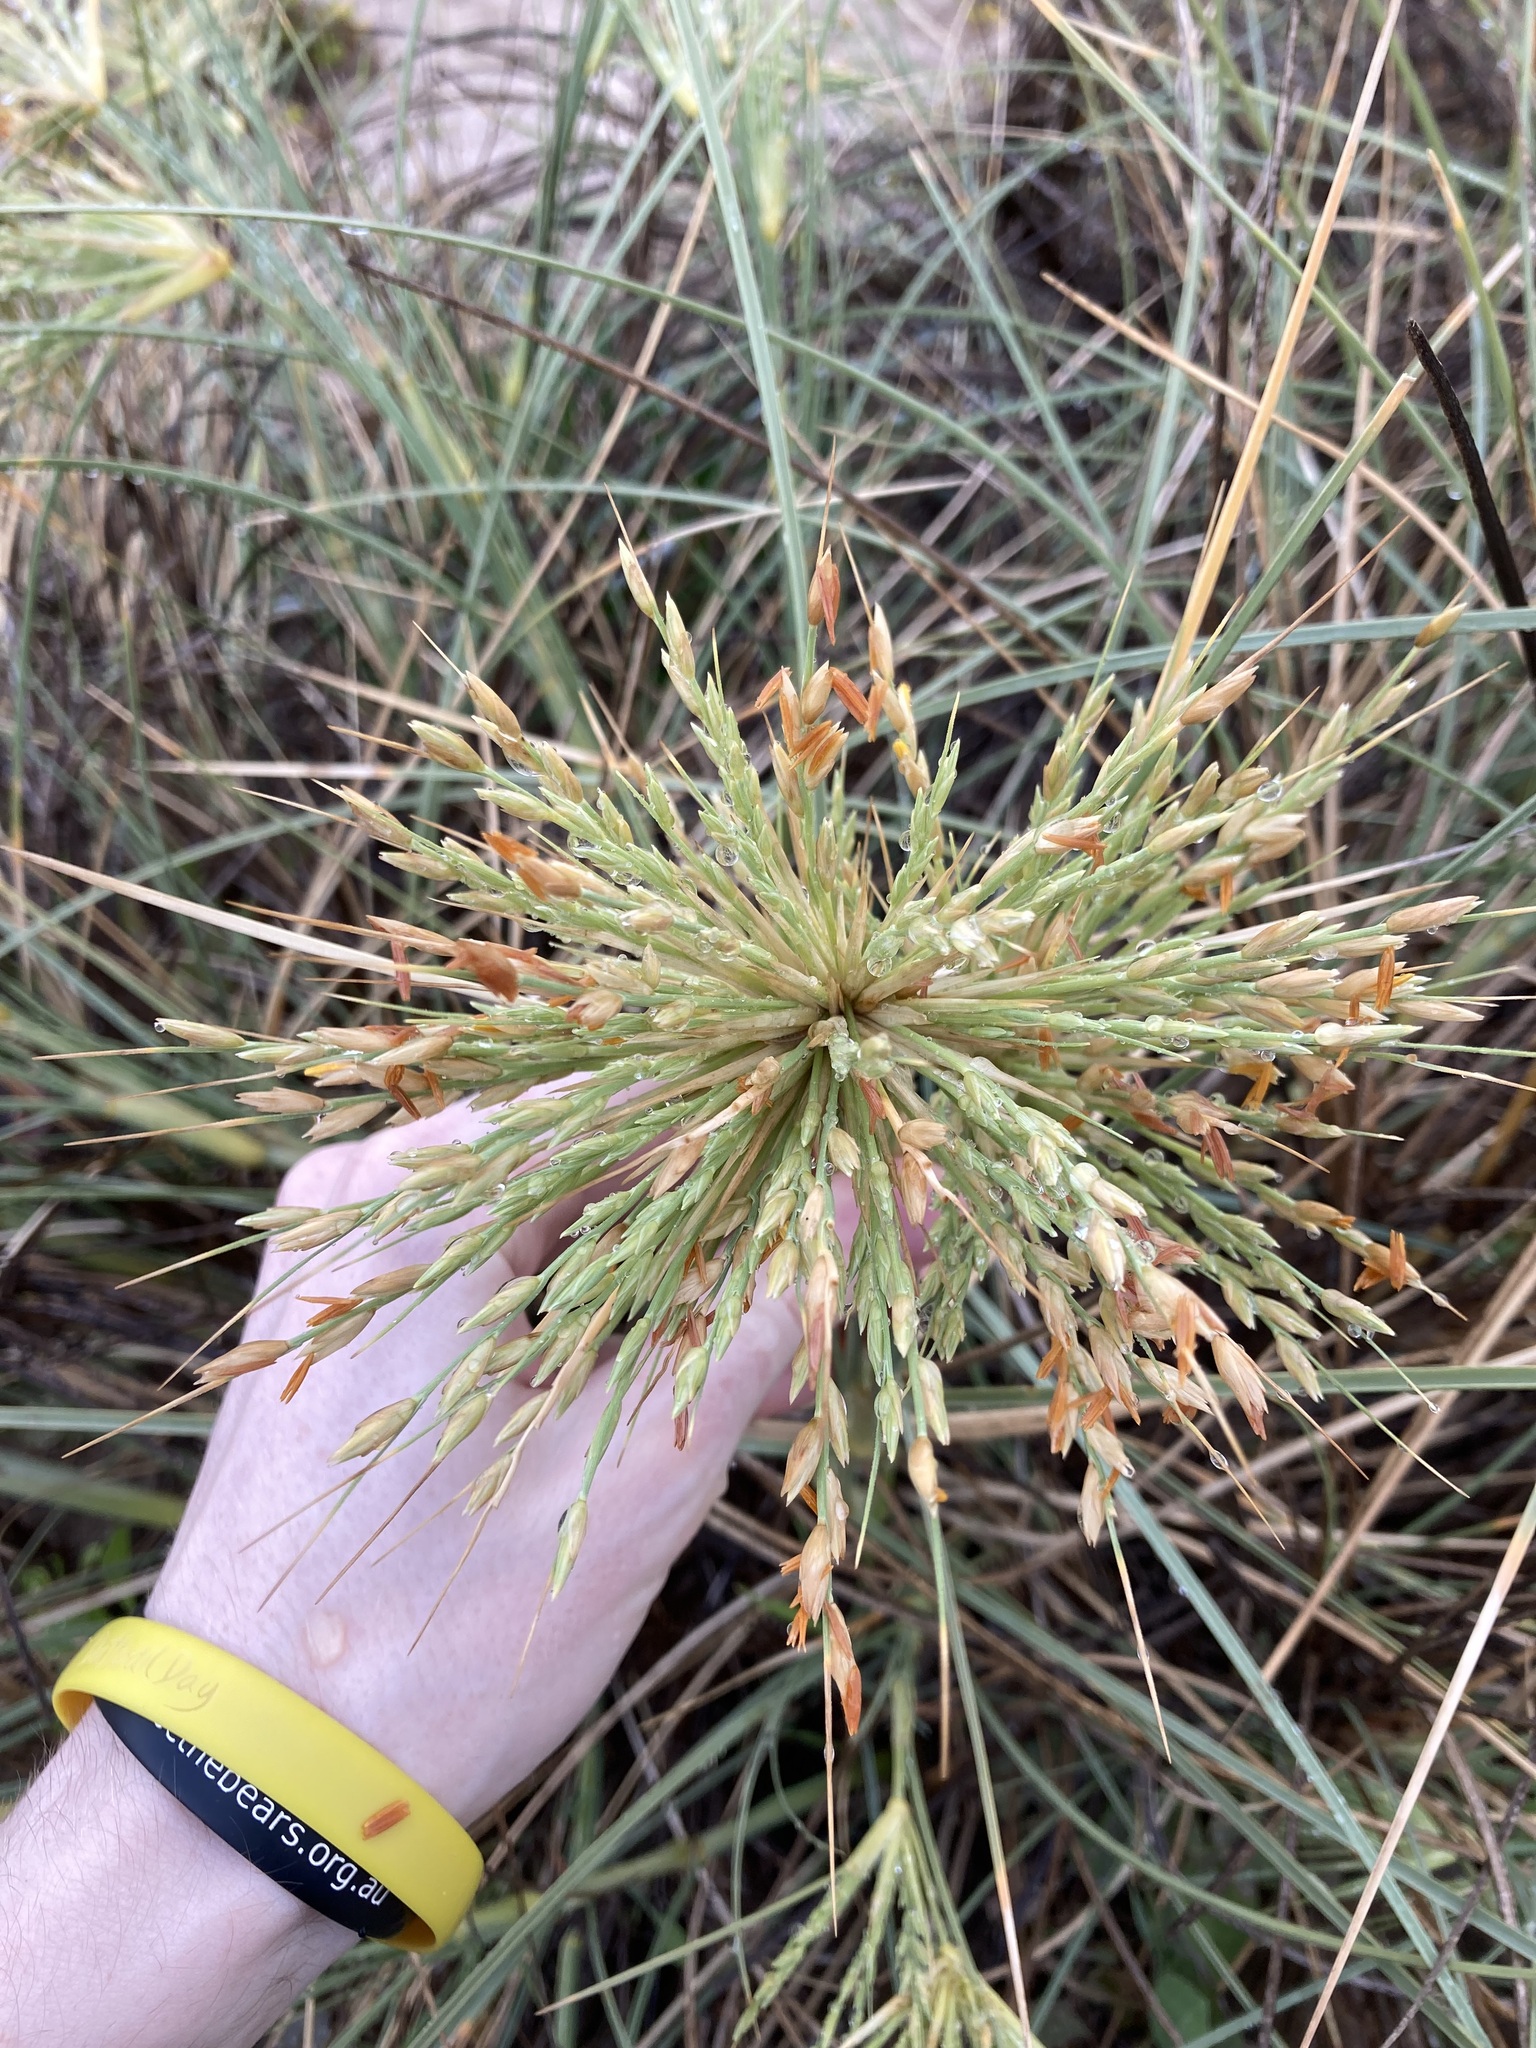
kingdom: Plantae
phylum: Tracheophyta
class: Liliopsida
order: Poales
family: Poaceae
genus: Spinifex
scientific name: Spinifex longifolius
